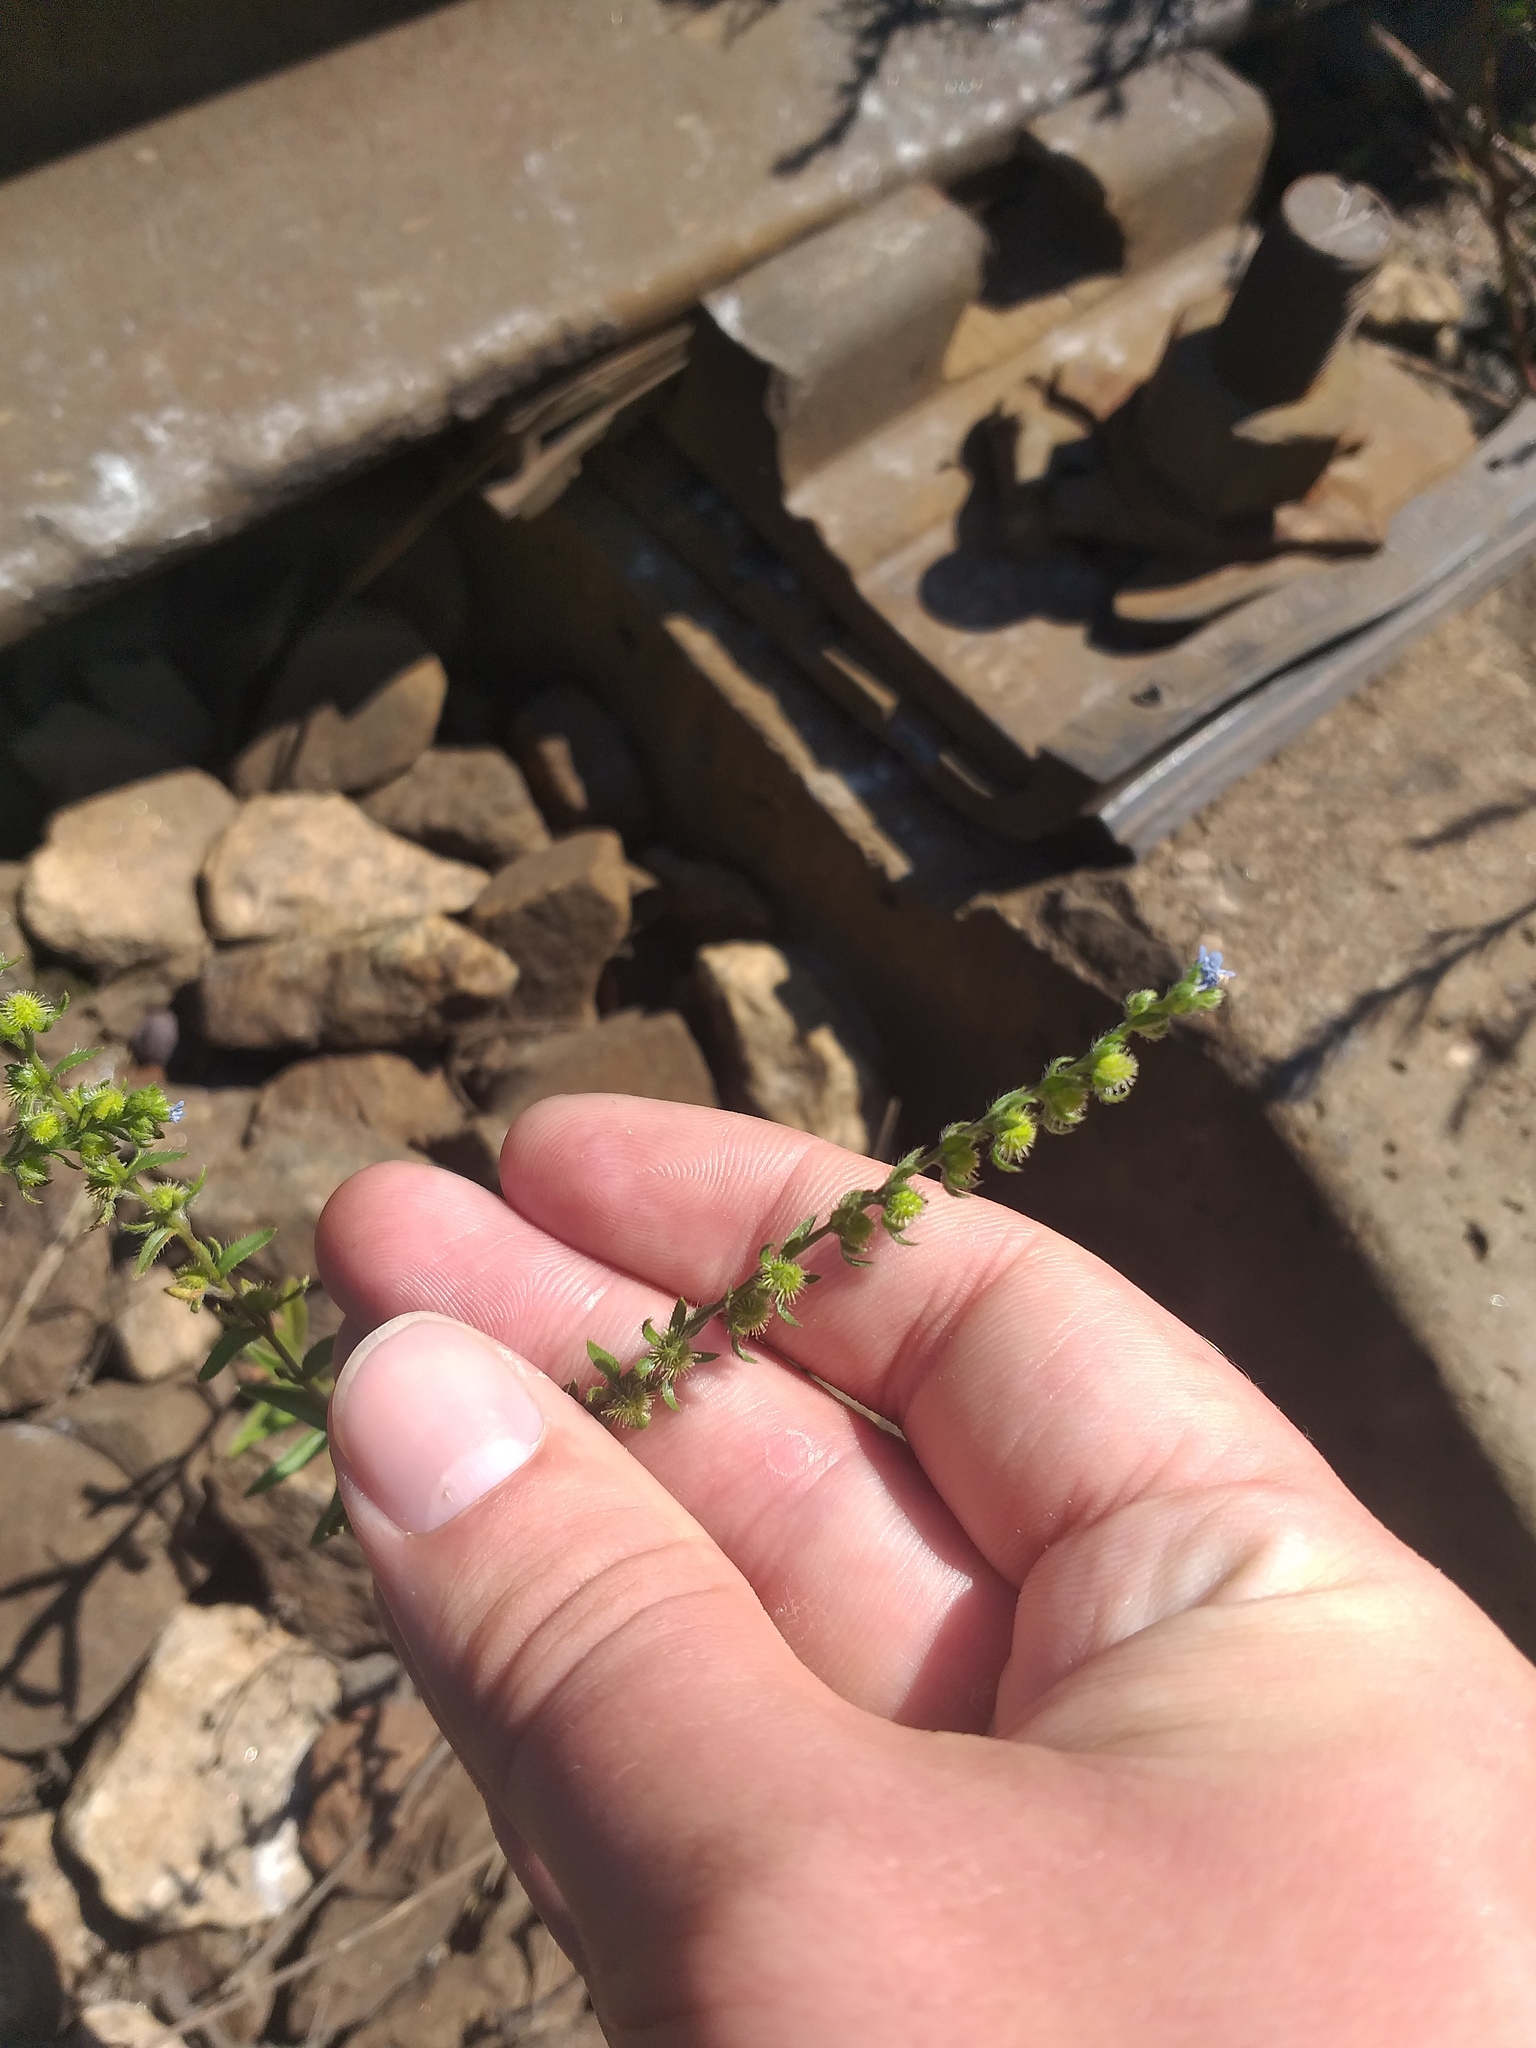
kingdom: Plantae
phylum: Tracheophyta
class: Magnoliopsida
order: Boraginales
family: Boraginaceae
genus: Lappula
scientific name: Lappula squarrosa
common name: European stickseed
